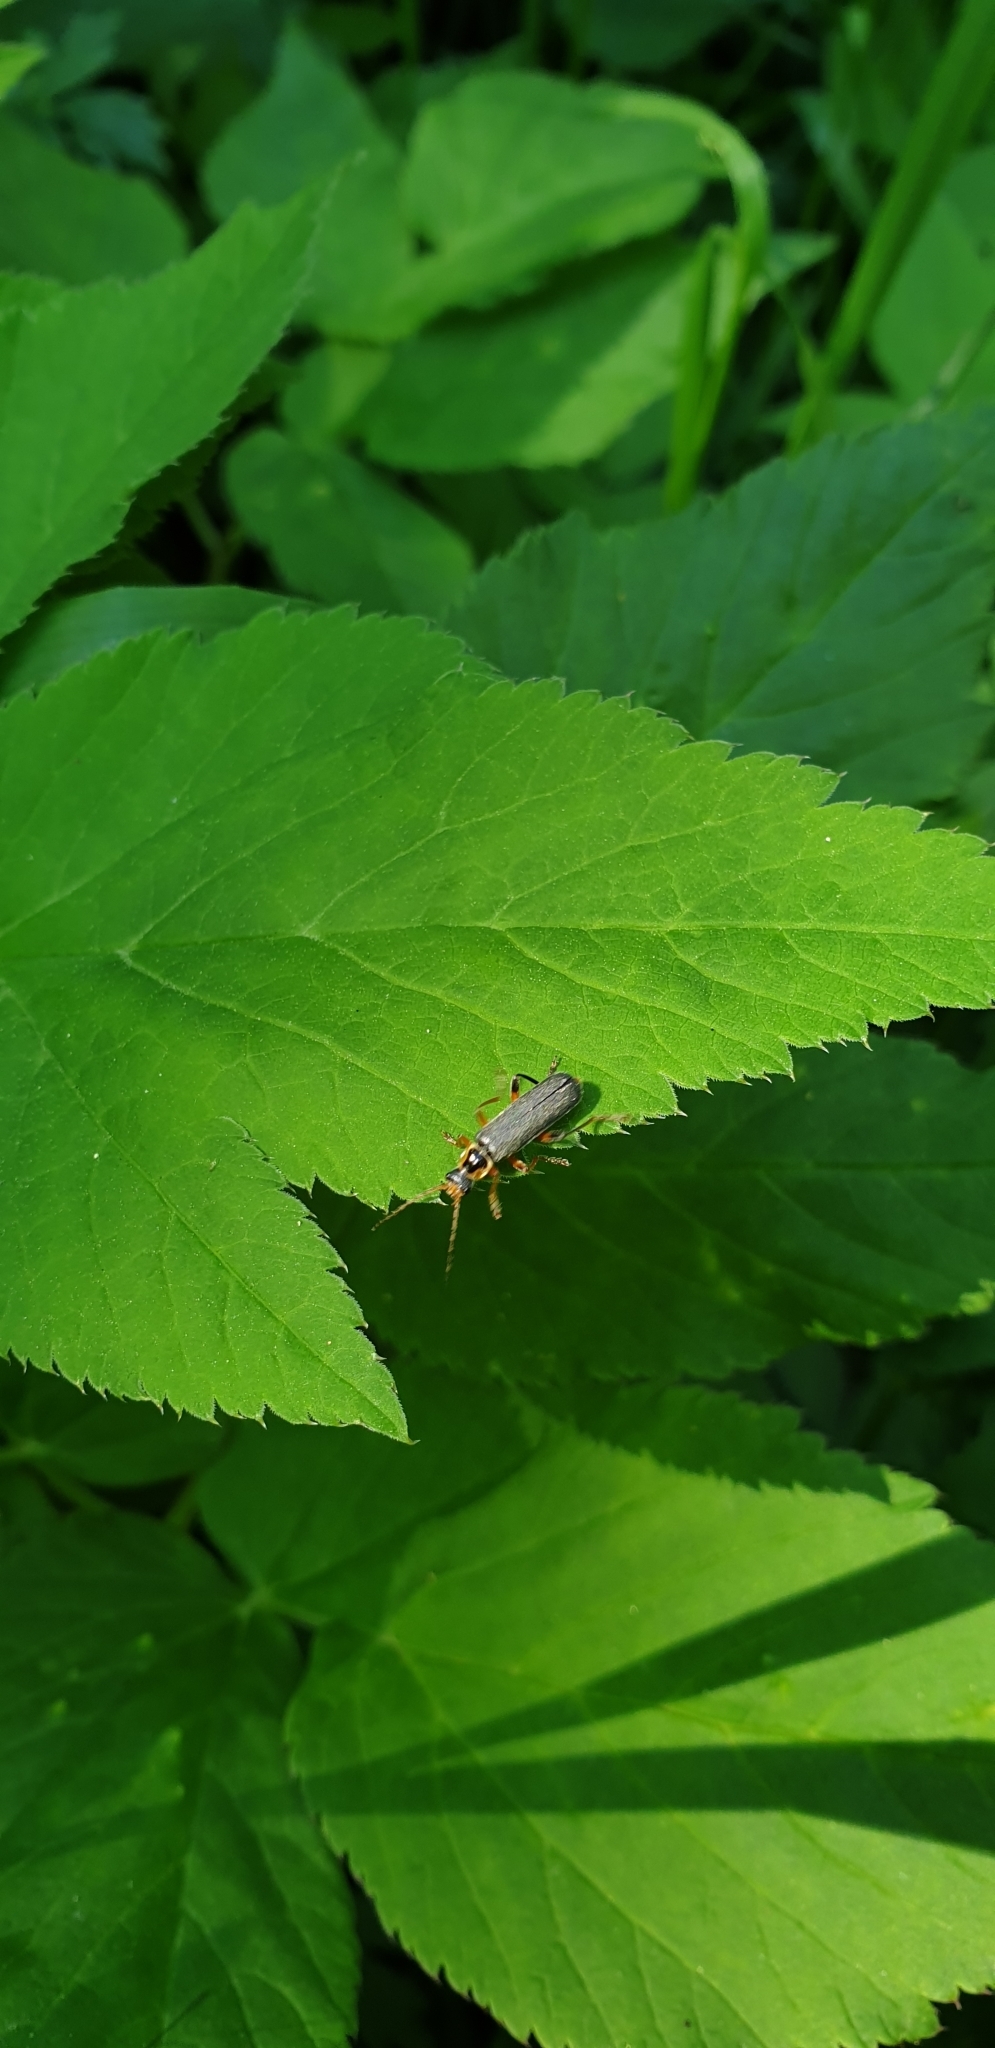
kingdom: Animalia
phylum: Arthropoda
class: Insecta
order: Coleoptera
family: Cantharidae
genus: Cantharis
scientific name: Cantharis nigricans
